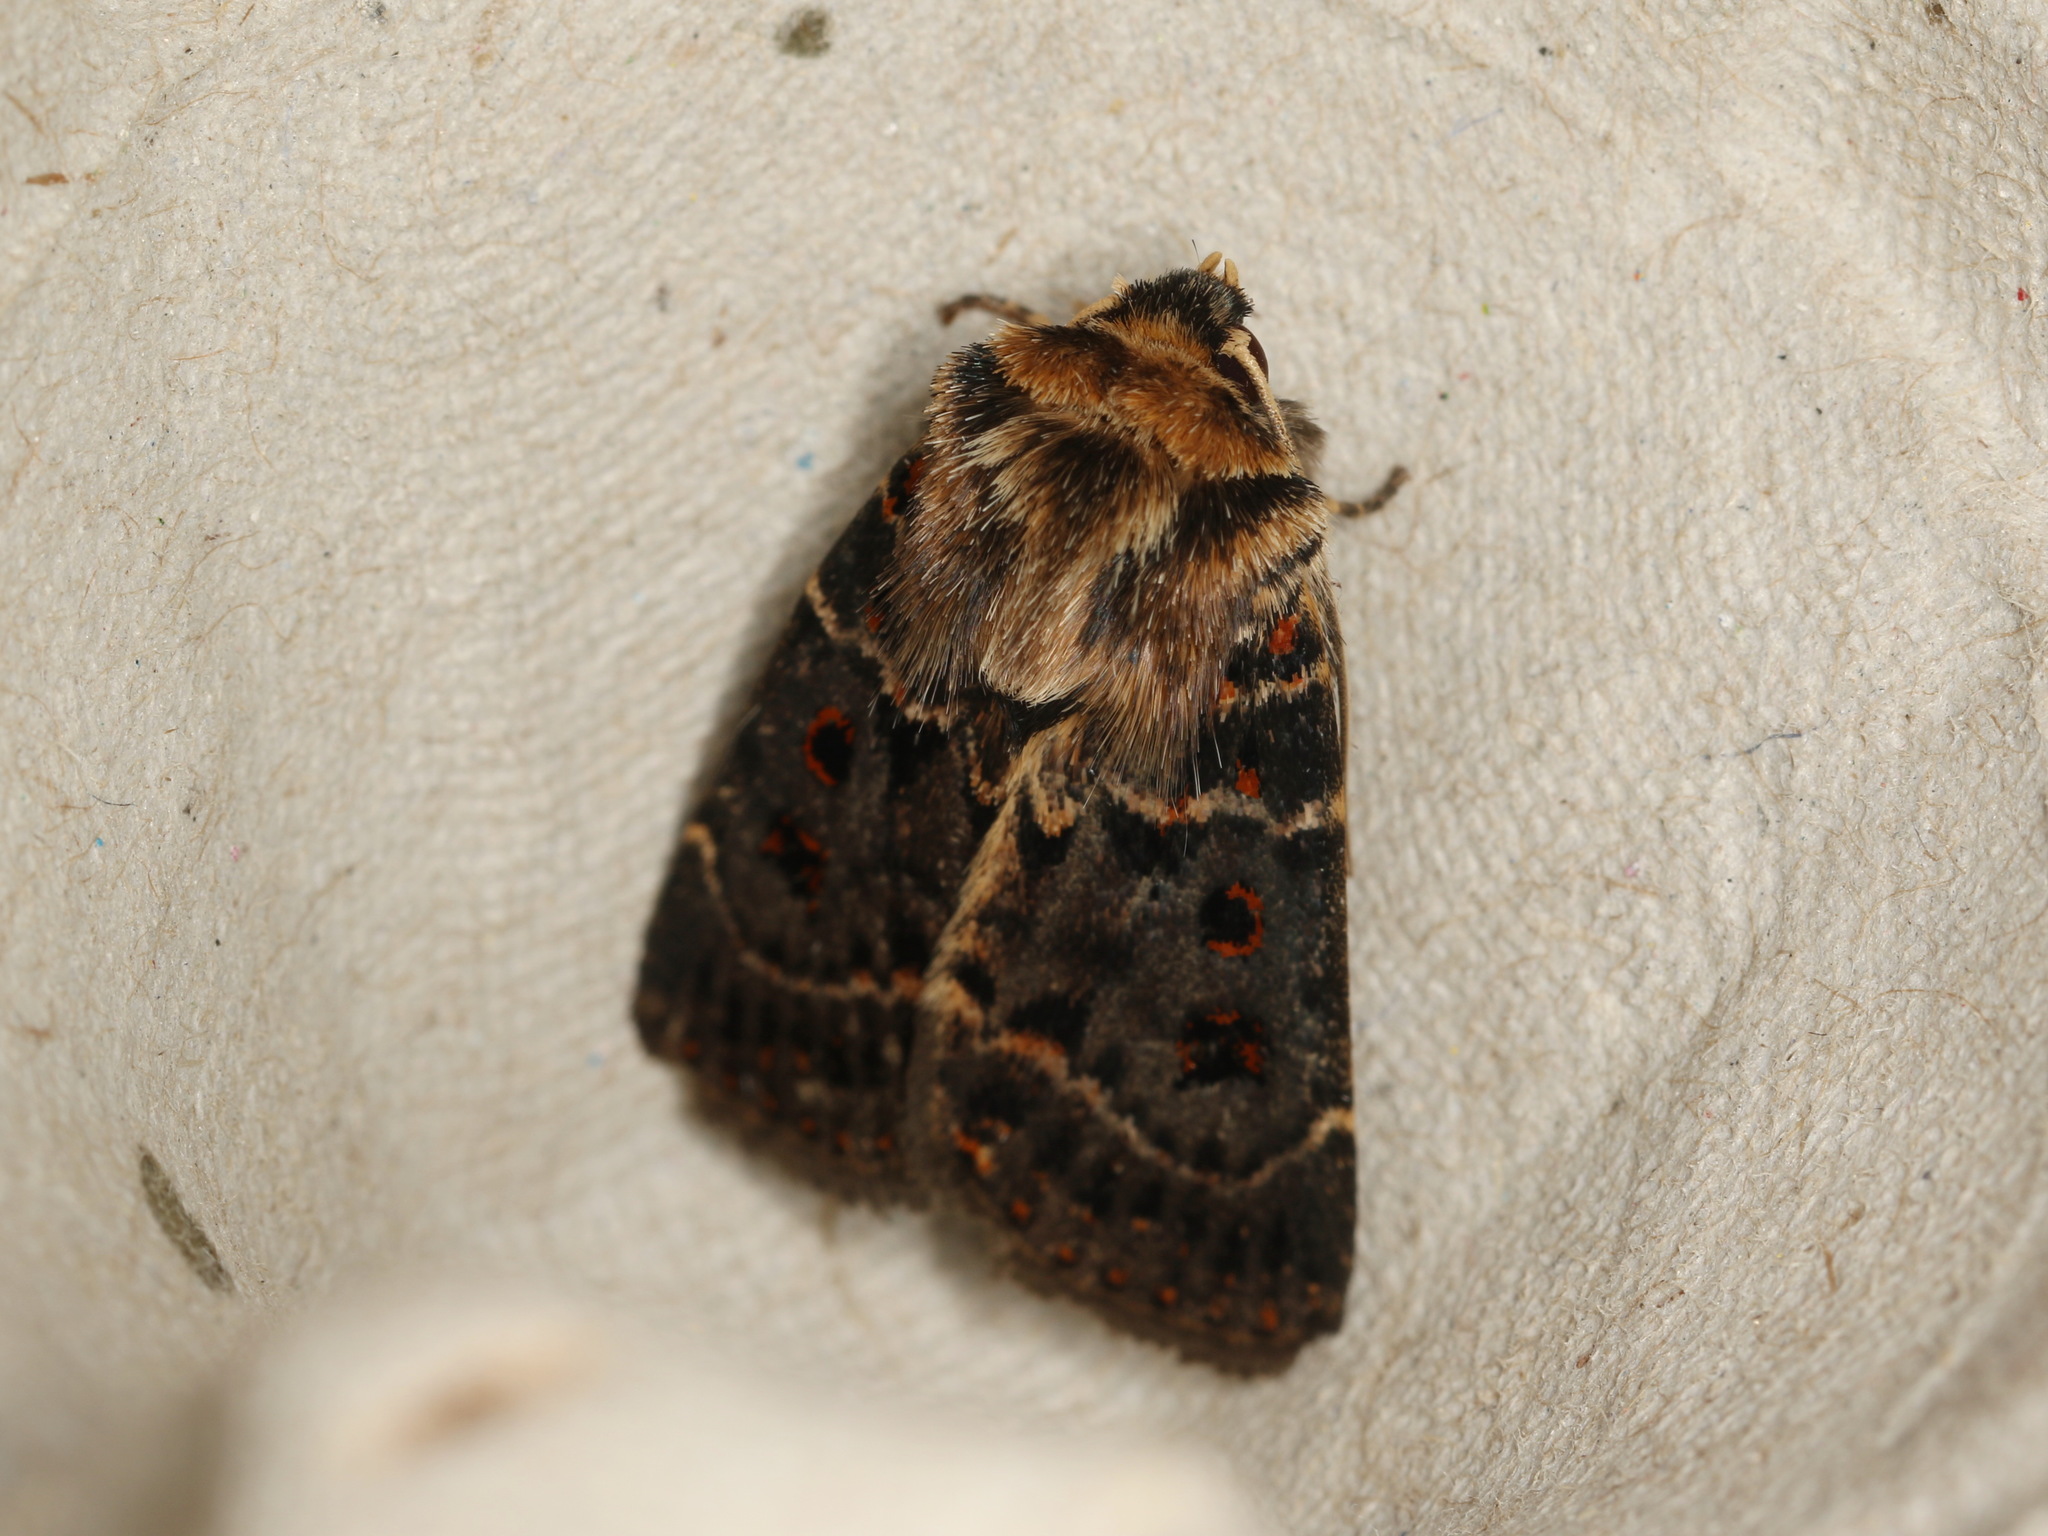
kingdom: Animalia
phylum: Arthropoda
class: Insecta
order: Lepidoptera
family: Noctuidae
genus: Proteuxoa
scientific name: Proteuxoa sanguinipuncta
